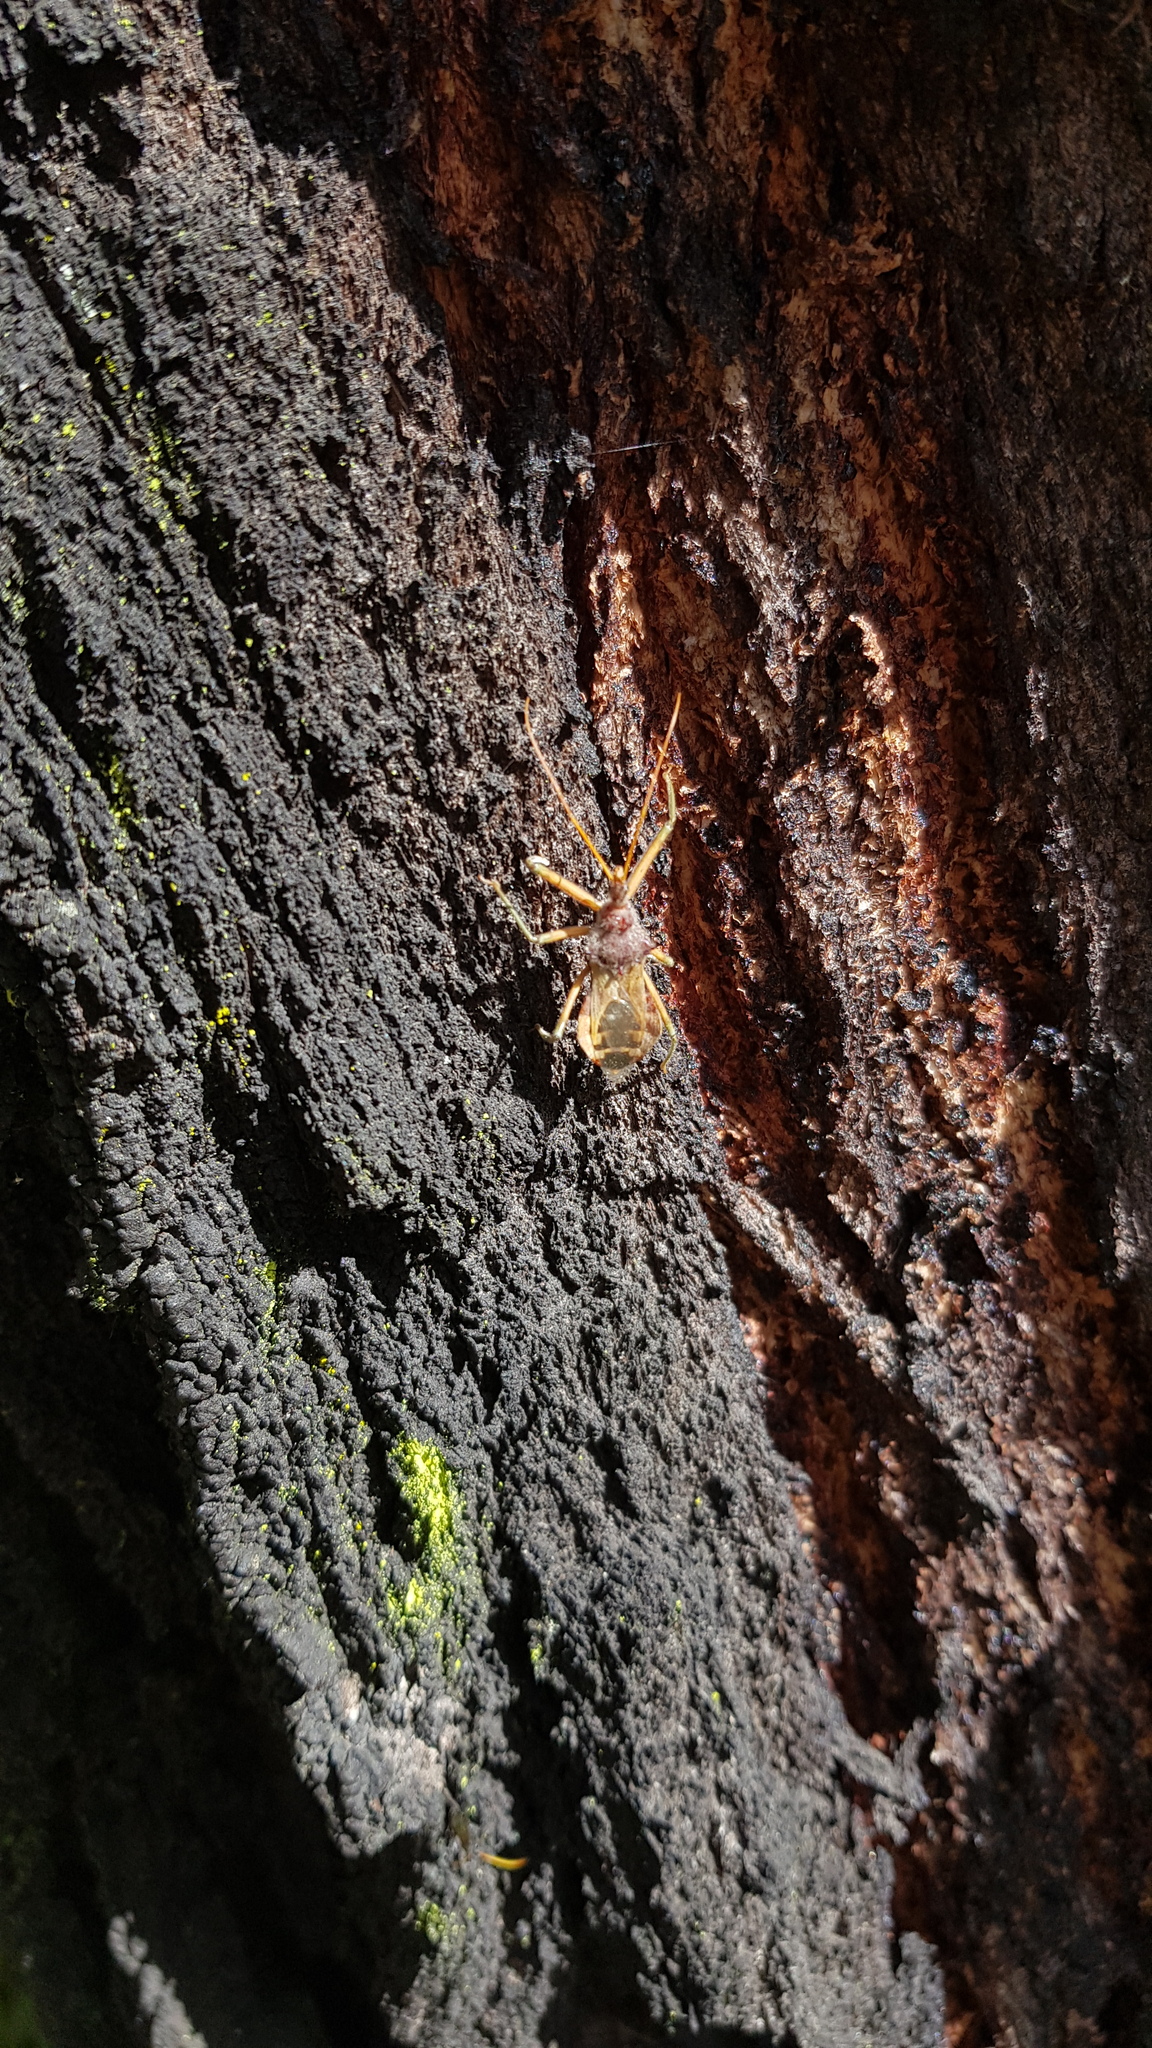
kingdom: Animalia
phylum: Arthropoda
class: Insecta
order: Hemiptera
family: Reduviidae
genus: Pristhesancus
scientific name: Pristhesancus plagipennis
